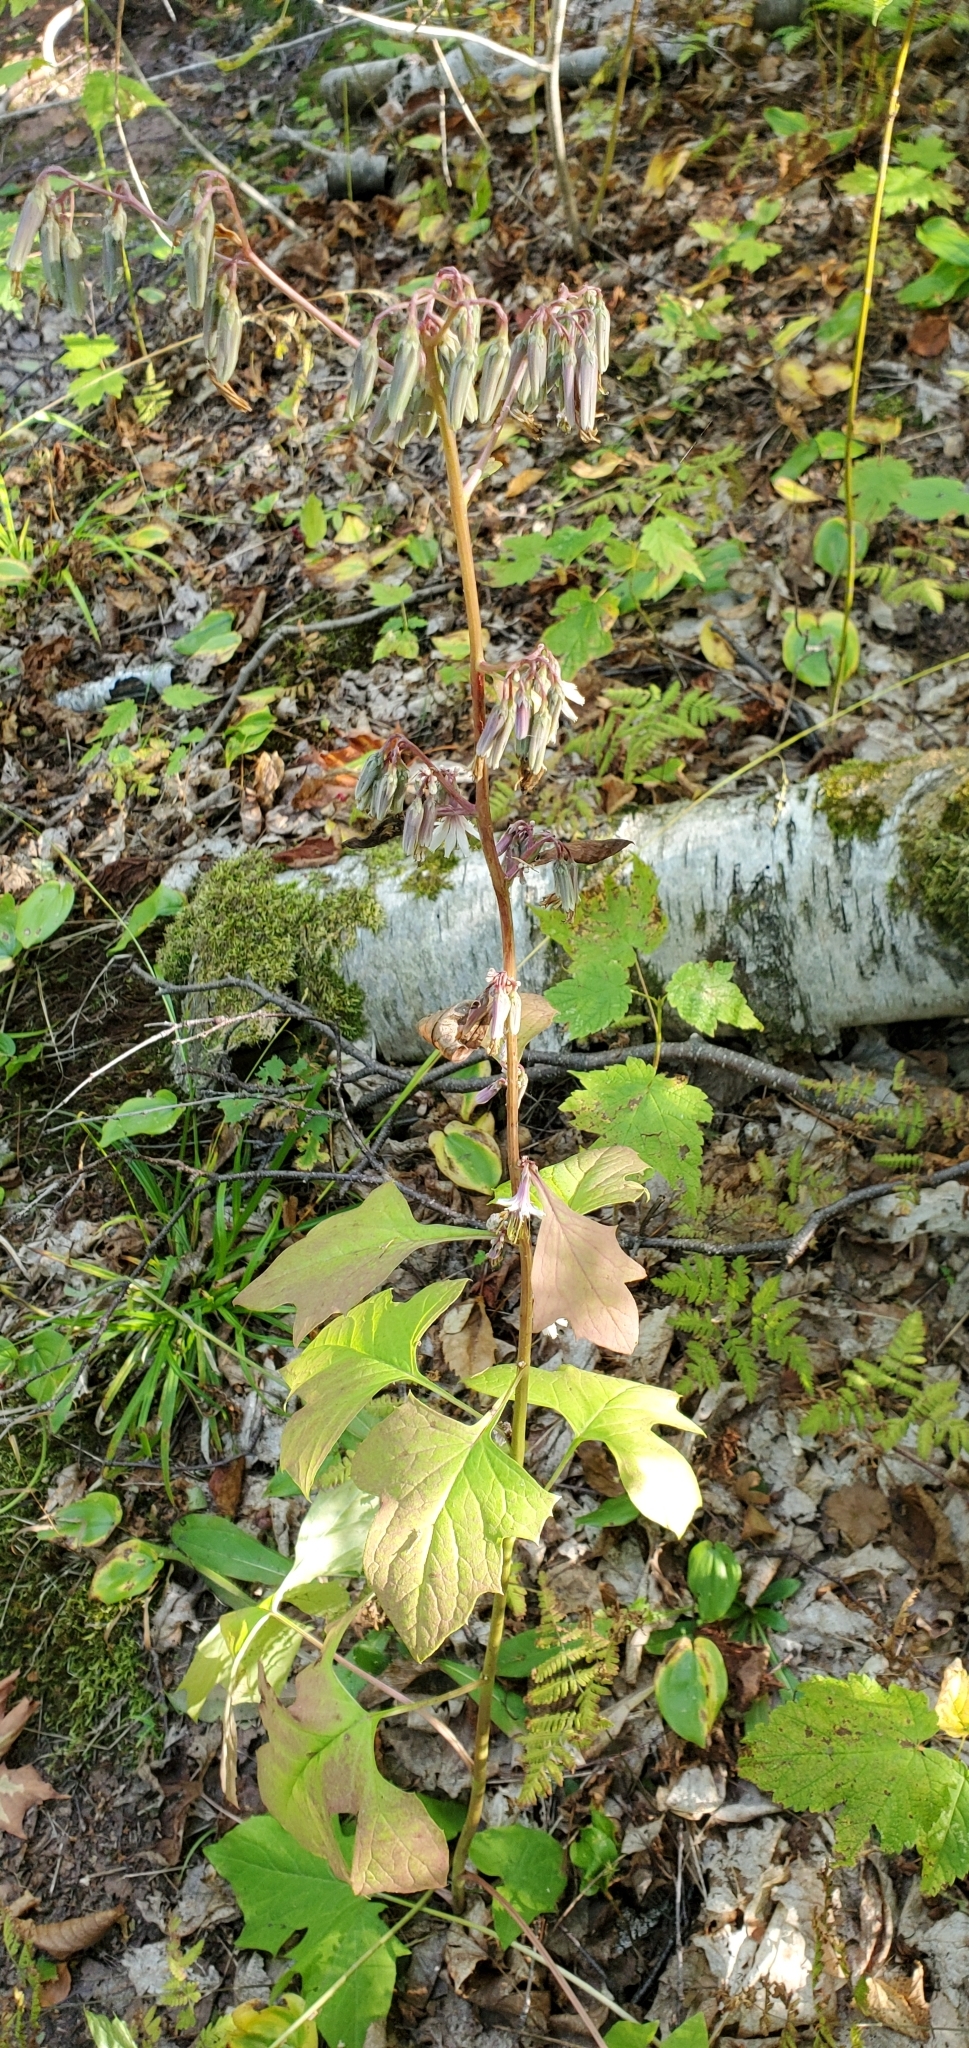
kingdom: Plantae
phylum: Tracheophyta
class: Magnoliopsida
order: Asterales
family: Asteraceae
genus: Nabalus
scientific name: Nabalus albus
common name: White rattlesnakeroot
